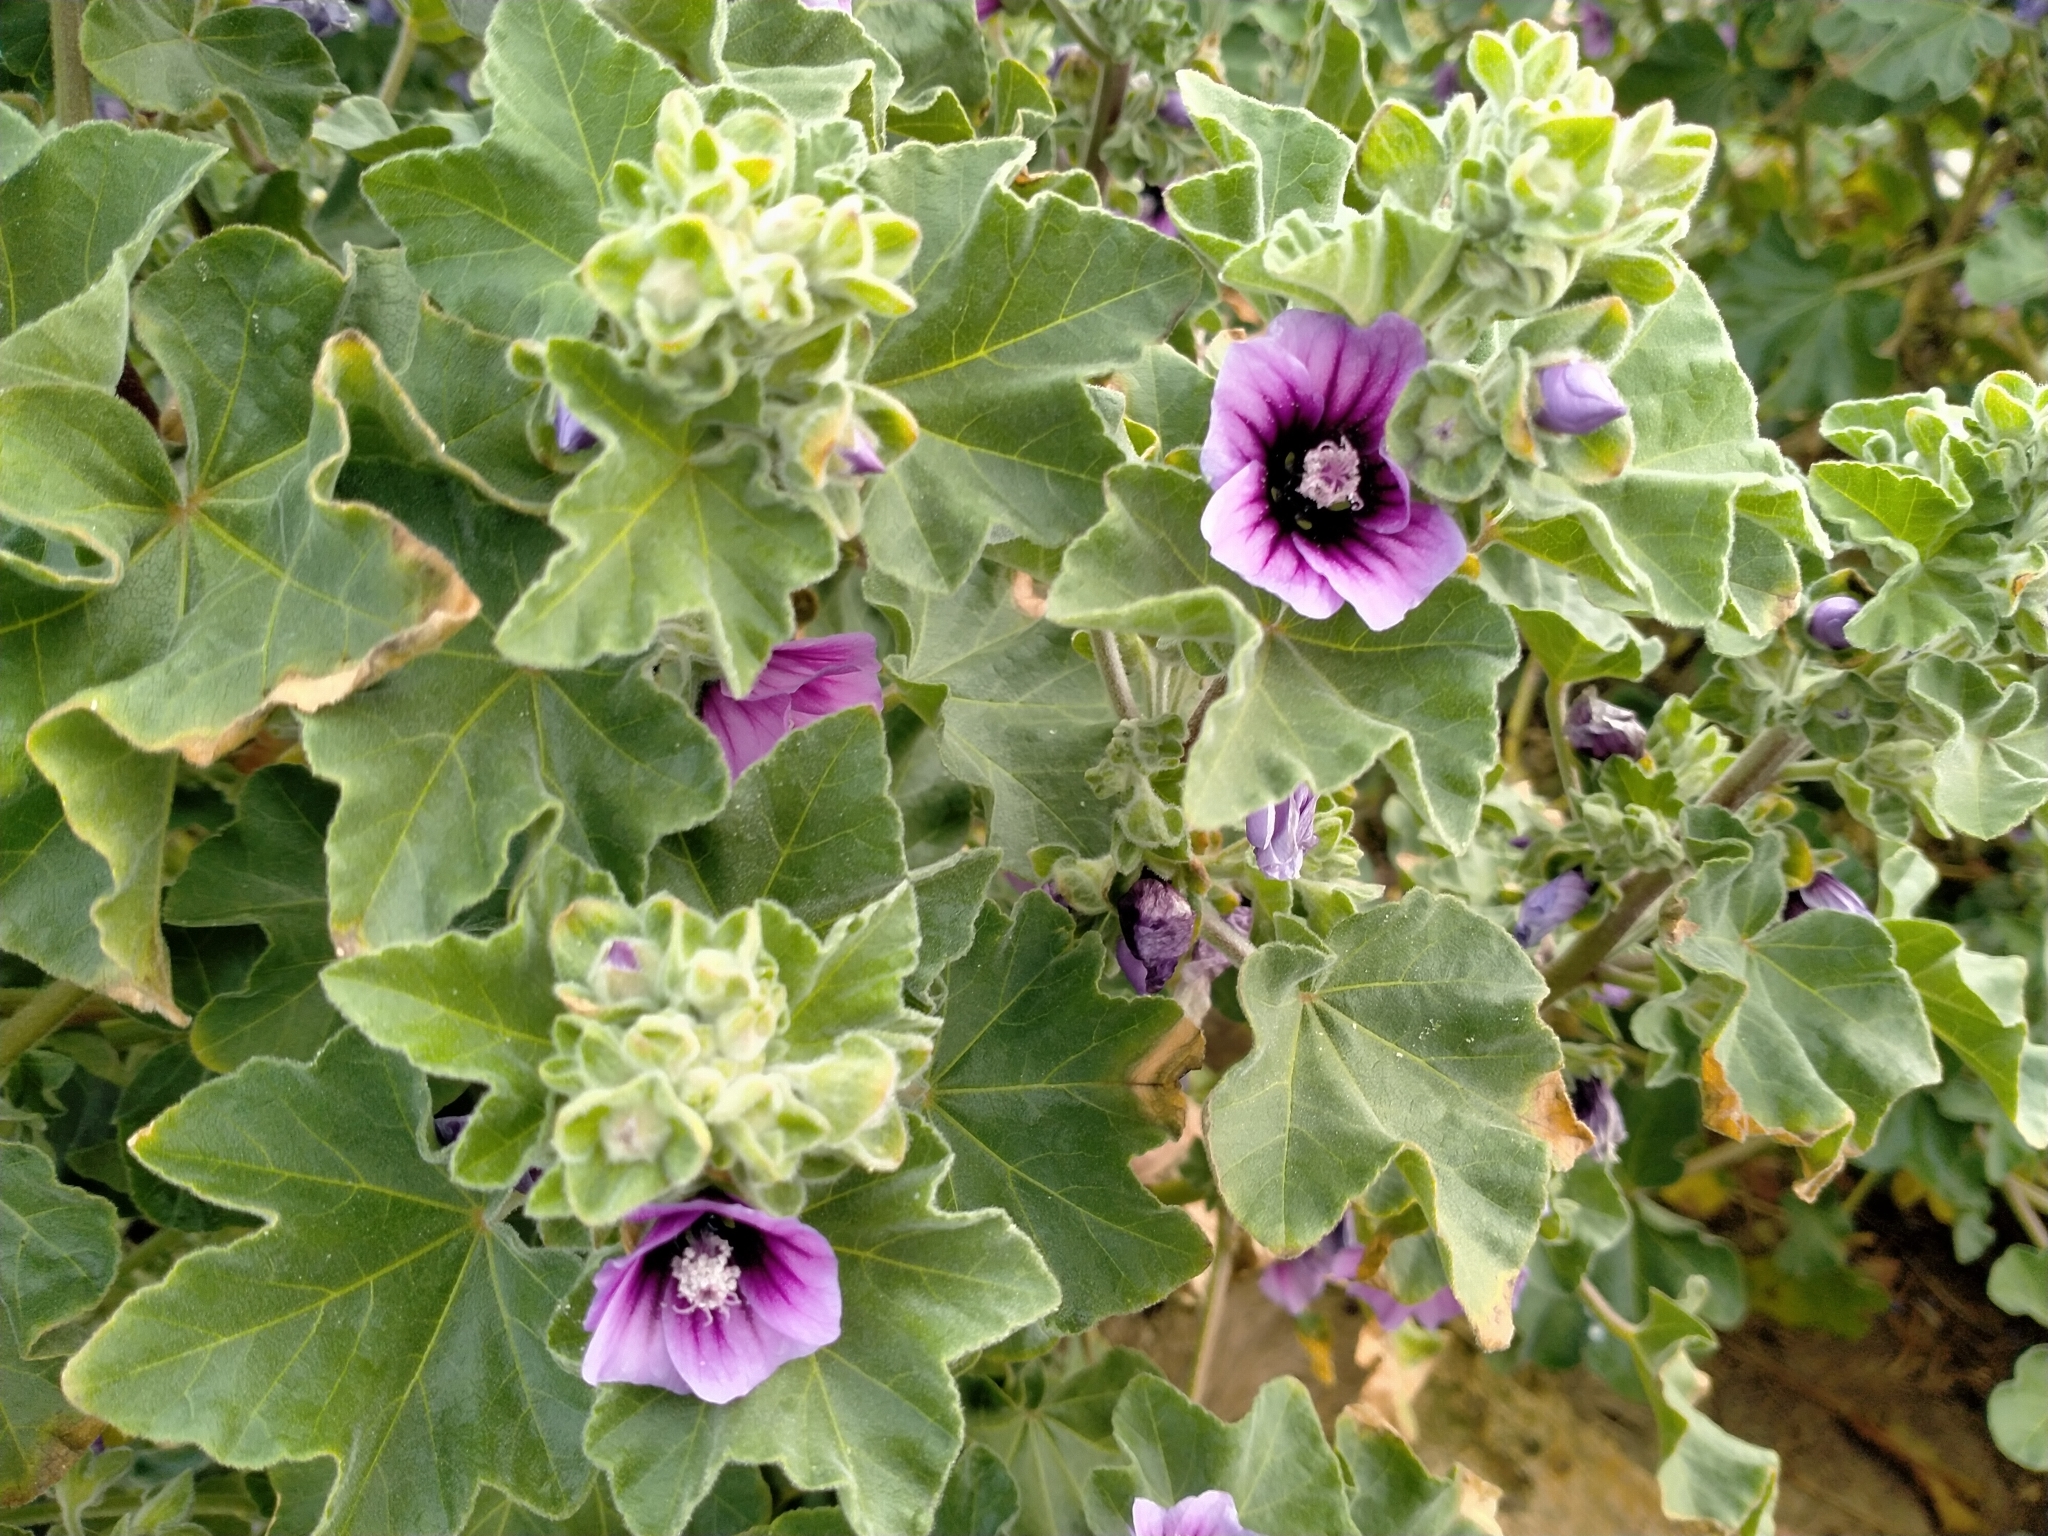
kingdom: Plantae
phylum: Tracheophyta
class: Magnoliopsida
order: Malvales
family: Malvaceae
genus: Malva
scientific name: Malva arborea
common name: Tree mallow
